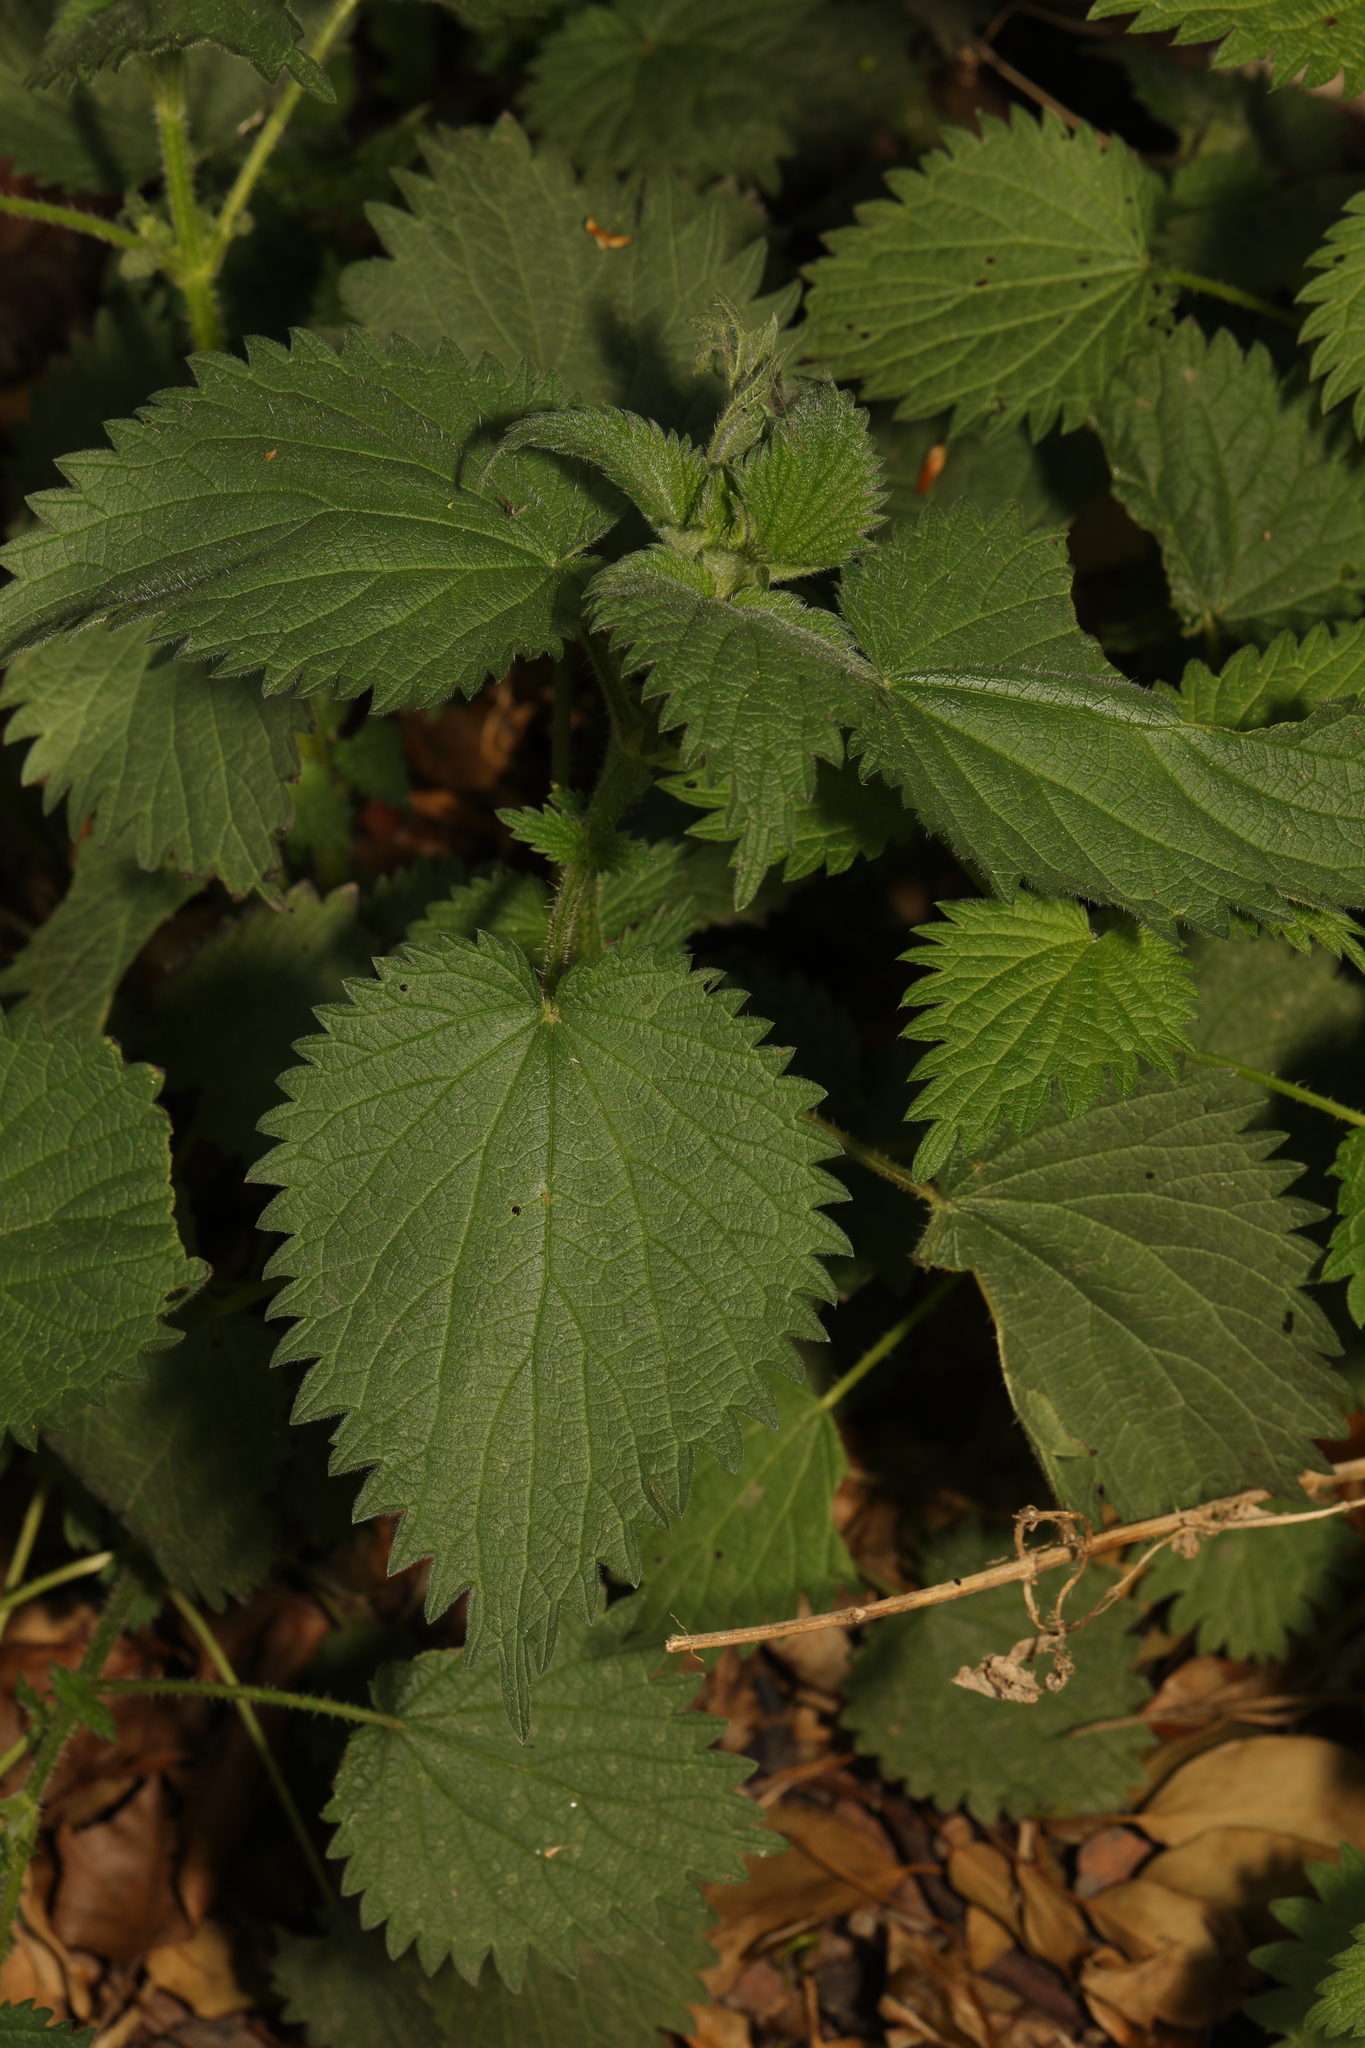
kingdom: Plantae
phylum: Tracheophyta
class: Magnoliopsida
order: Rosales
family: Urticaceae
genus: Urtica
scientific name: Urtica dioica
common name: Common nettle
